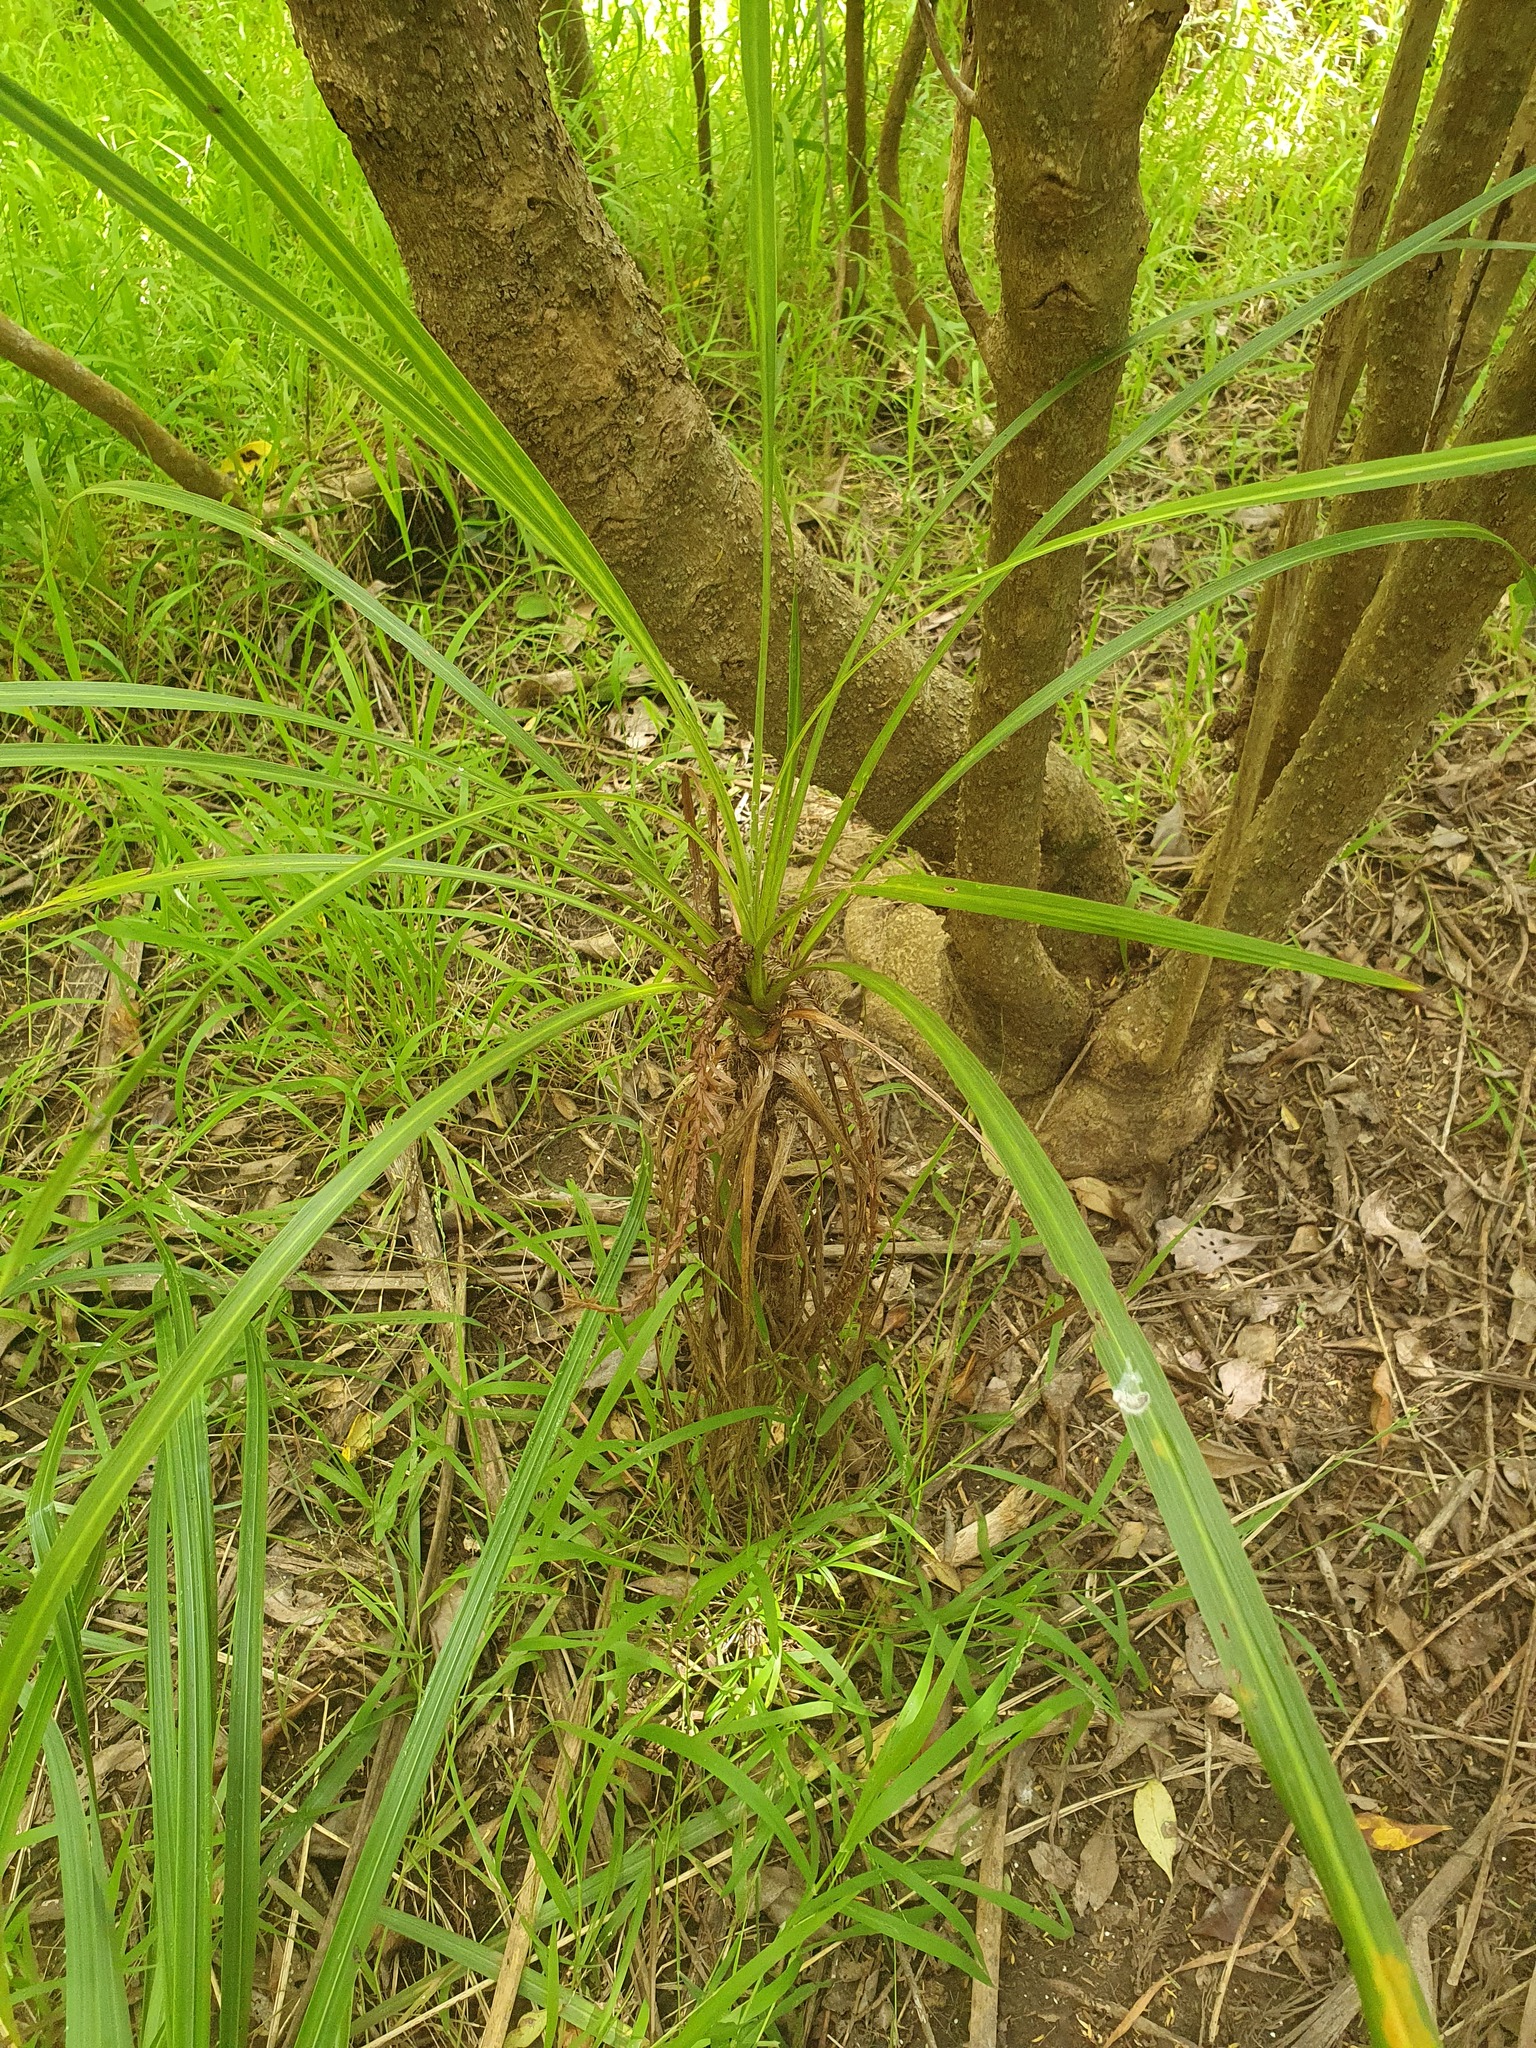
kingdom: Plantae
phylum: Tracheophyta
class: Liliopsida
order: Asparagales
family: Asparagaceae
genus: Cordyline
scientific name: Cordyline australis
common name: Cabbage-palm
